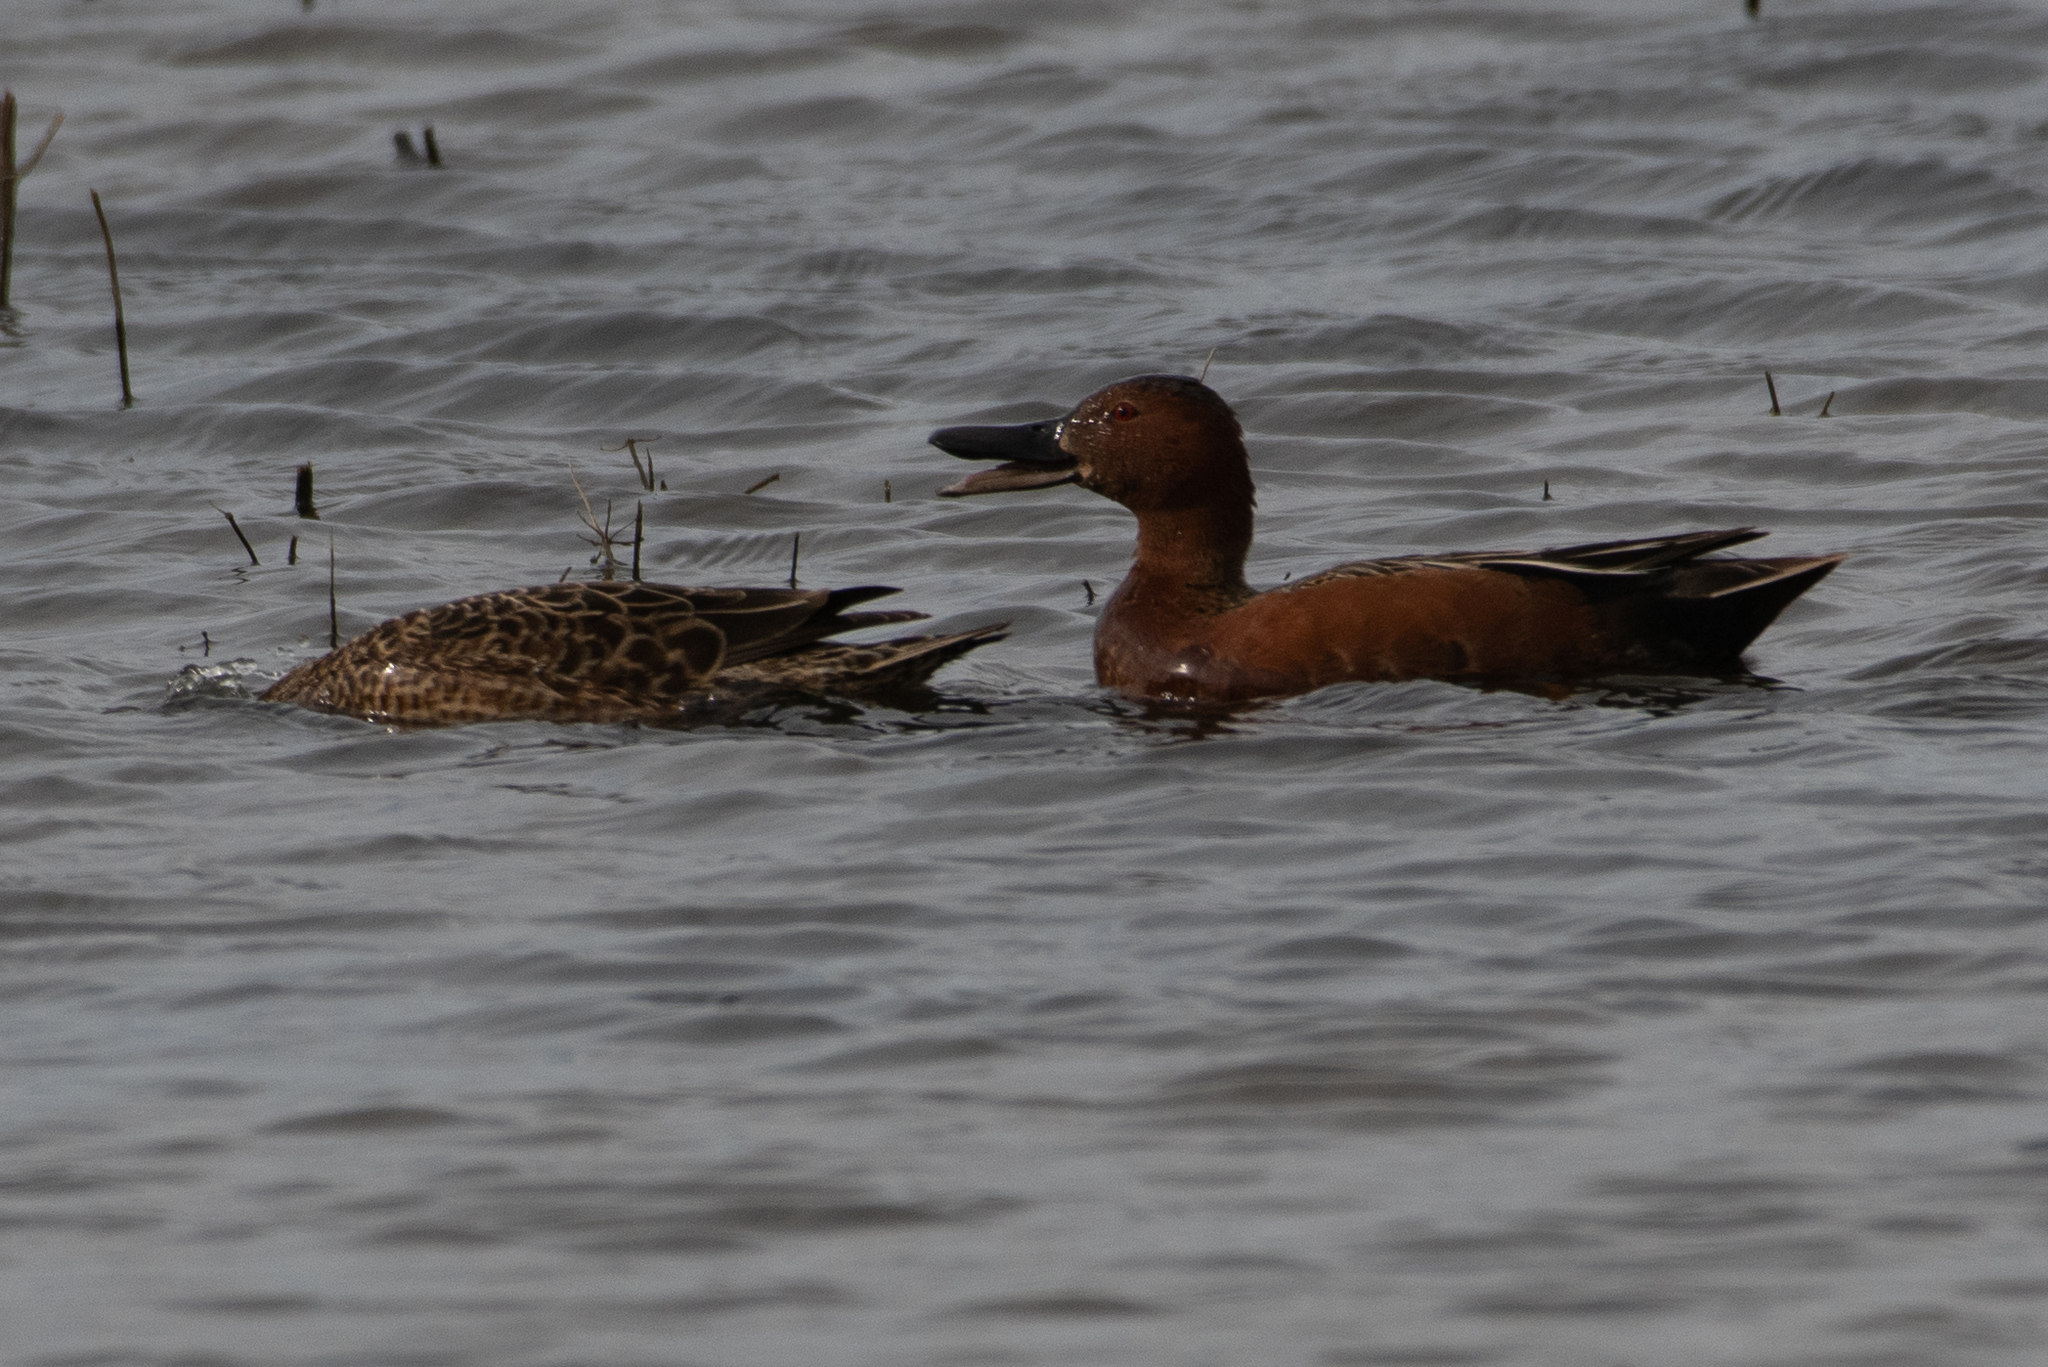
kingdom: Animalia
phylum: Chordata
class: Aves
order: Anseriformes
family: Anatidae
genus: Spatula
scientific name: Spatula cyanoptera
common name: Cinnamon teal
